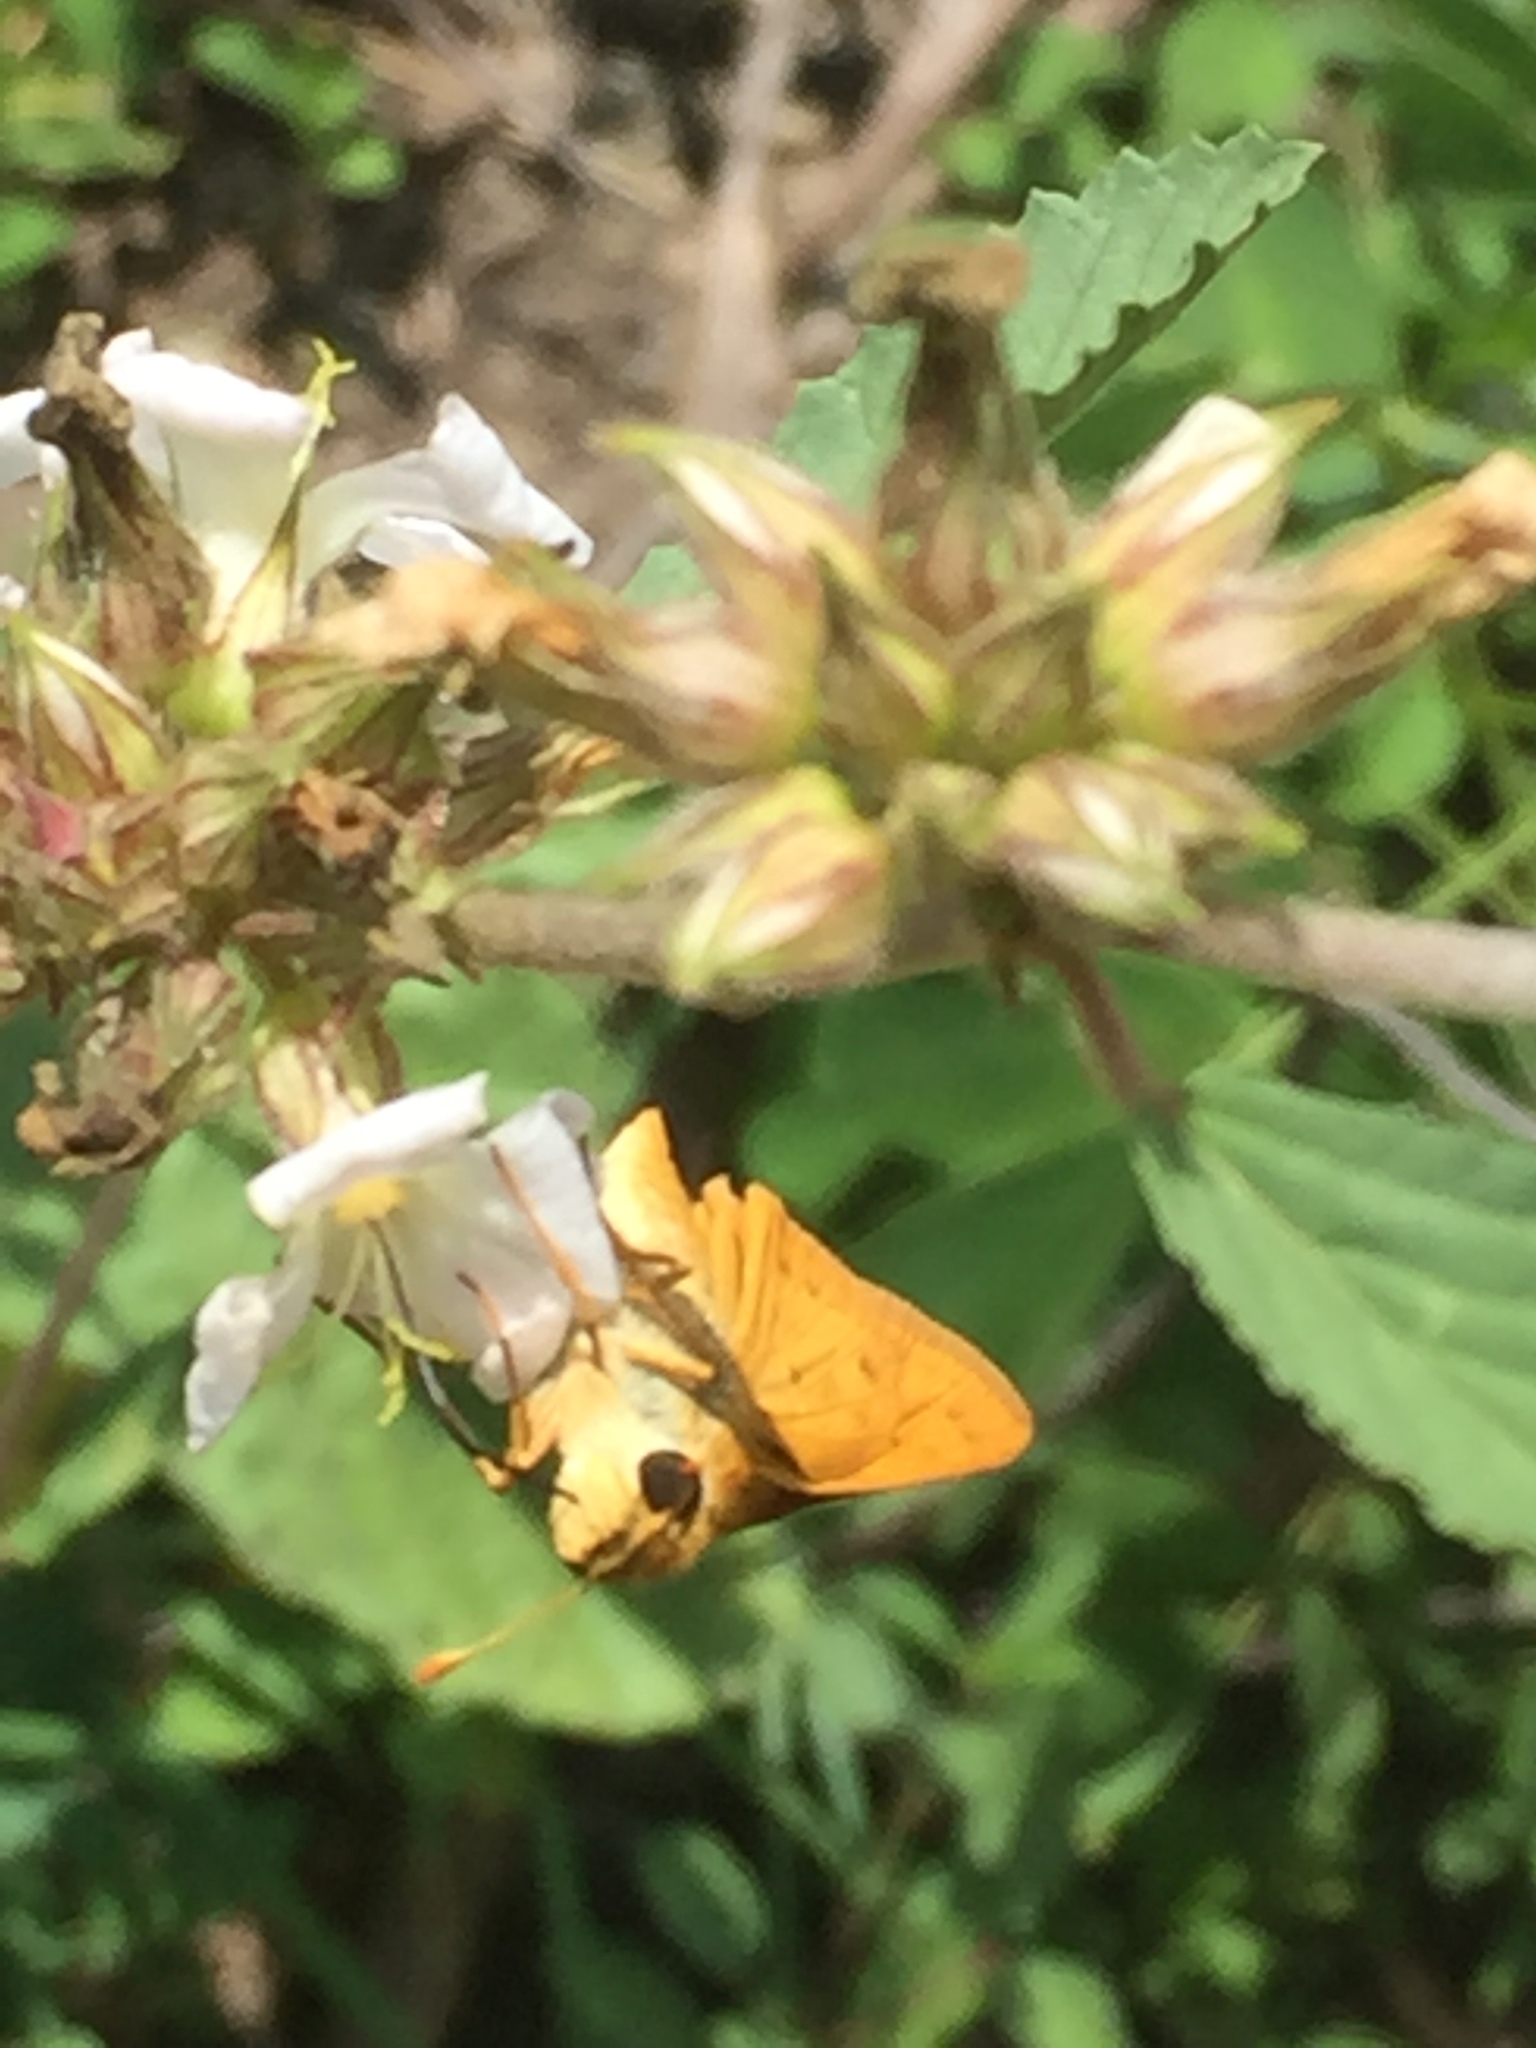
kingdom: Animalia
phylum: Arthropoda
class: Insecta
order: Lepidoptera
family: Hesperiidae
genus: Hylephila
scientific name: Hylephila phyleus
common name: Fiery skipper
